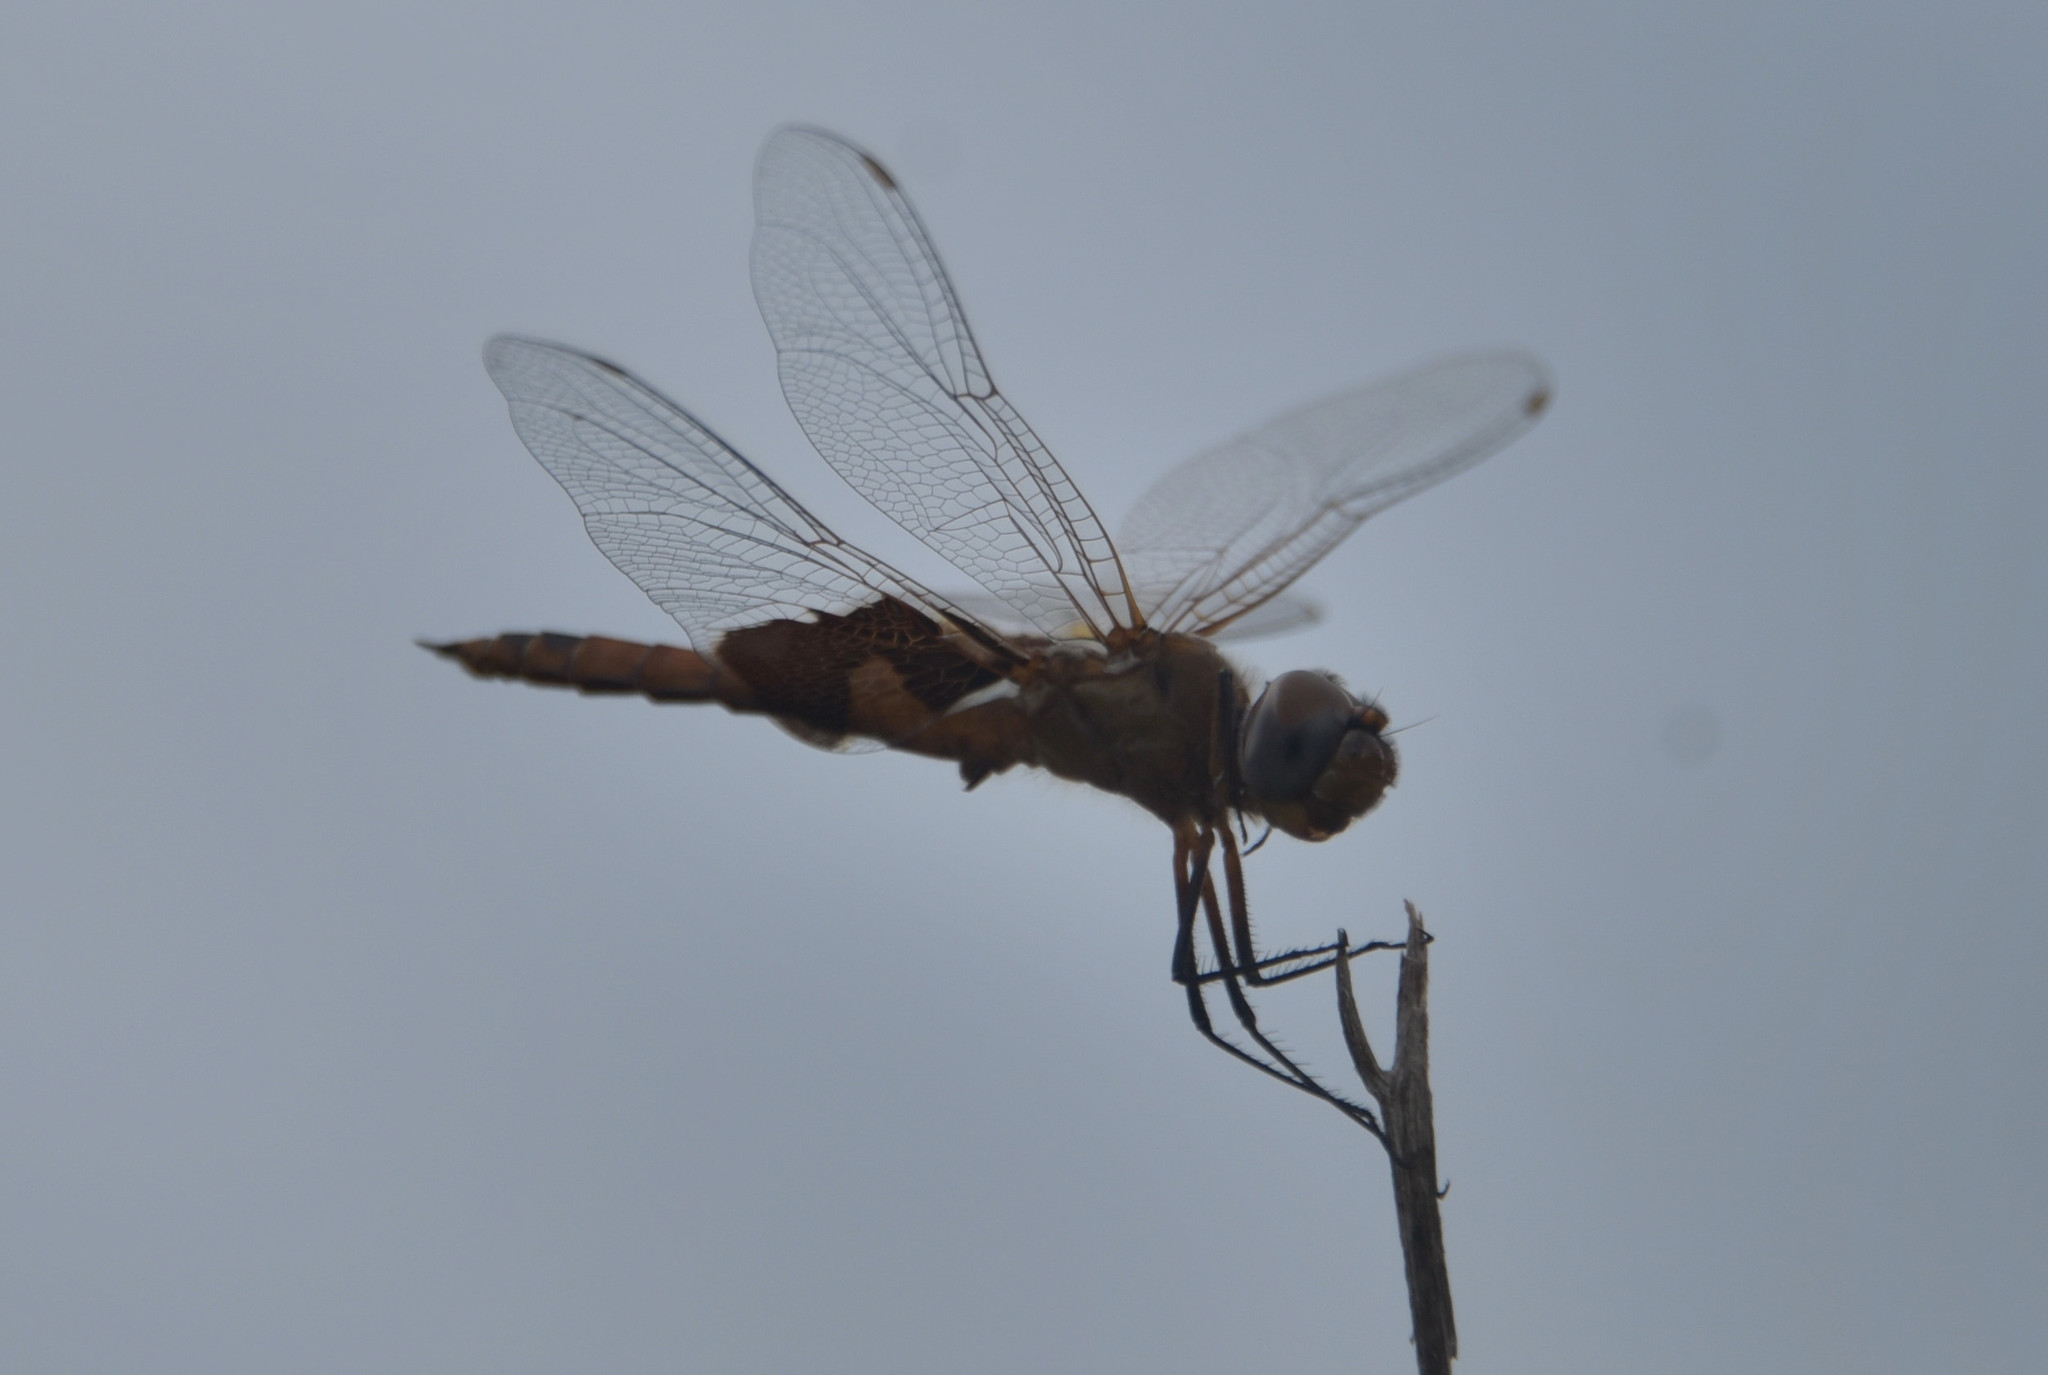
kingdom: Animalia
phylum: Arthropoda
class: Insecta
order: Odonata
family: Libellulidae
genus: Tramea
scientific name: Tramea onusta
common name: Red saddlebags
